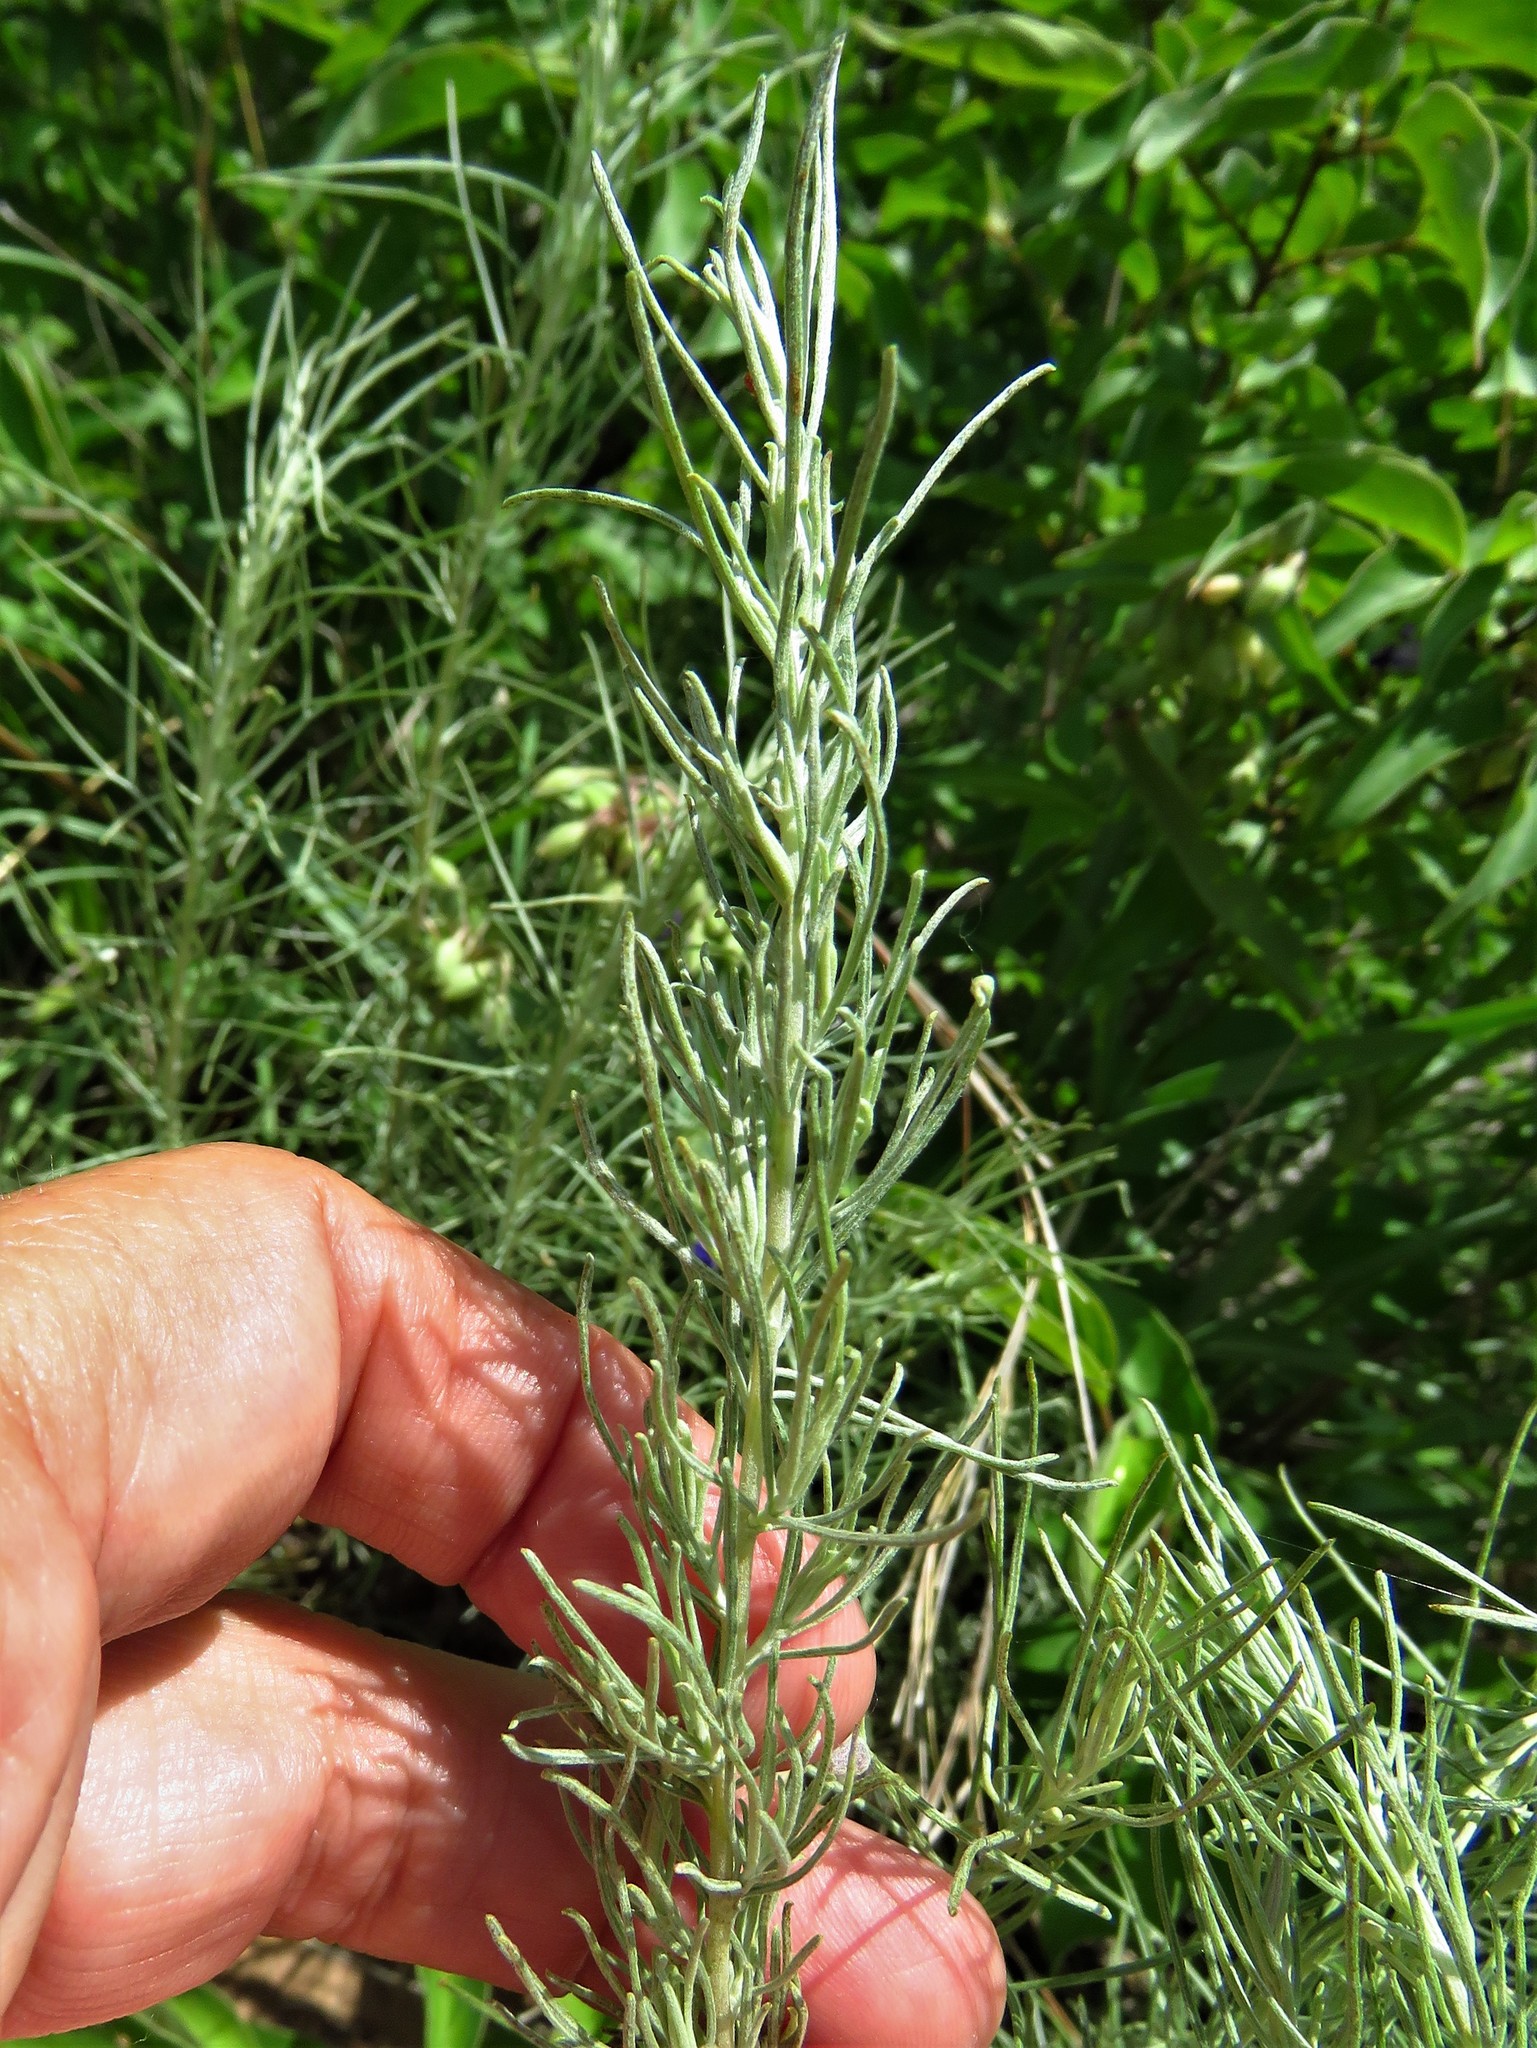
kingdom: Plantae
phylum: Tracheophyta
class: Magnoliopsida
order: Asterales
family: Asteraceae
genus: Artemisia
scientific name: Artemisia filifolia
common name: Sand-sage
